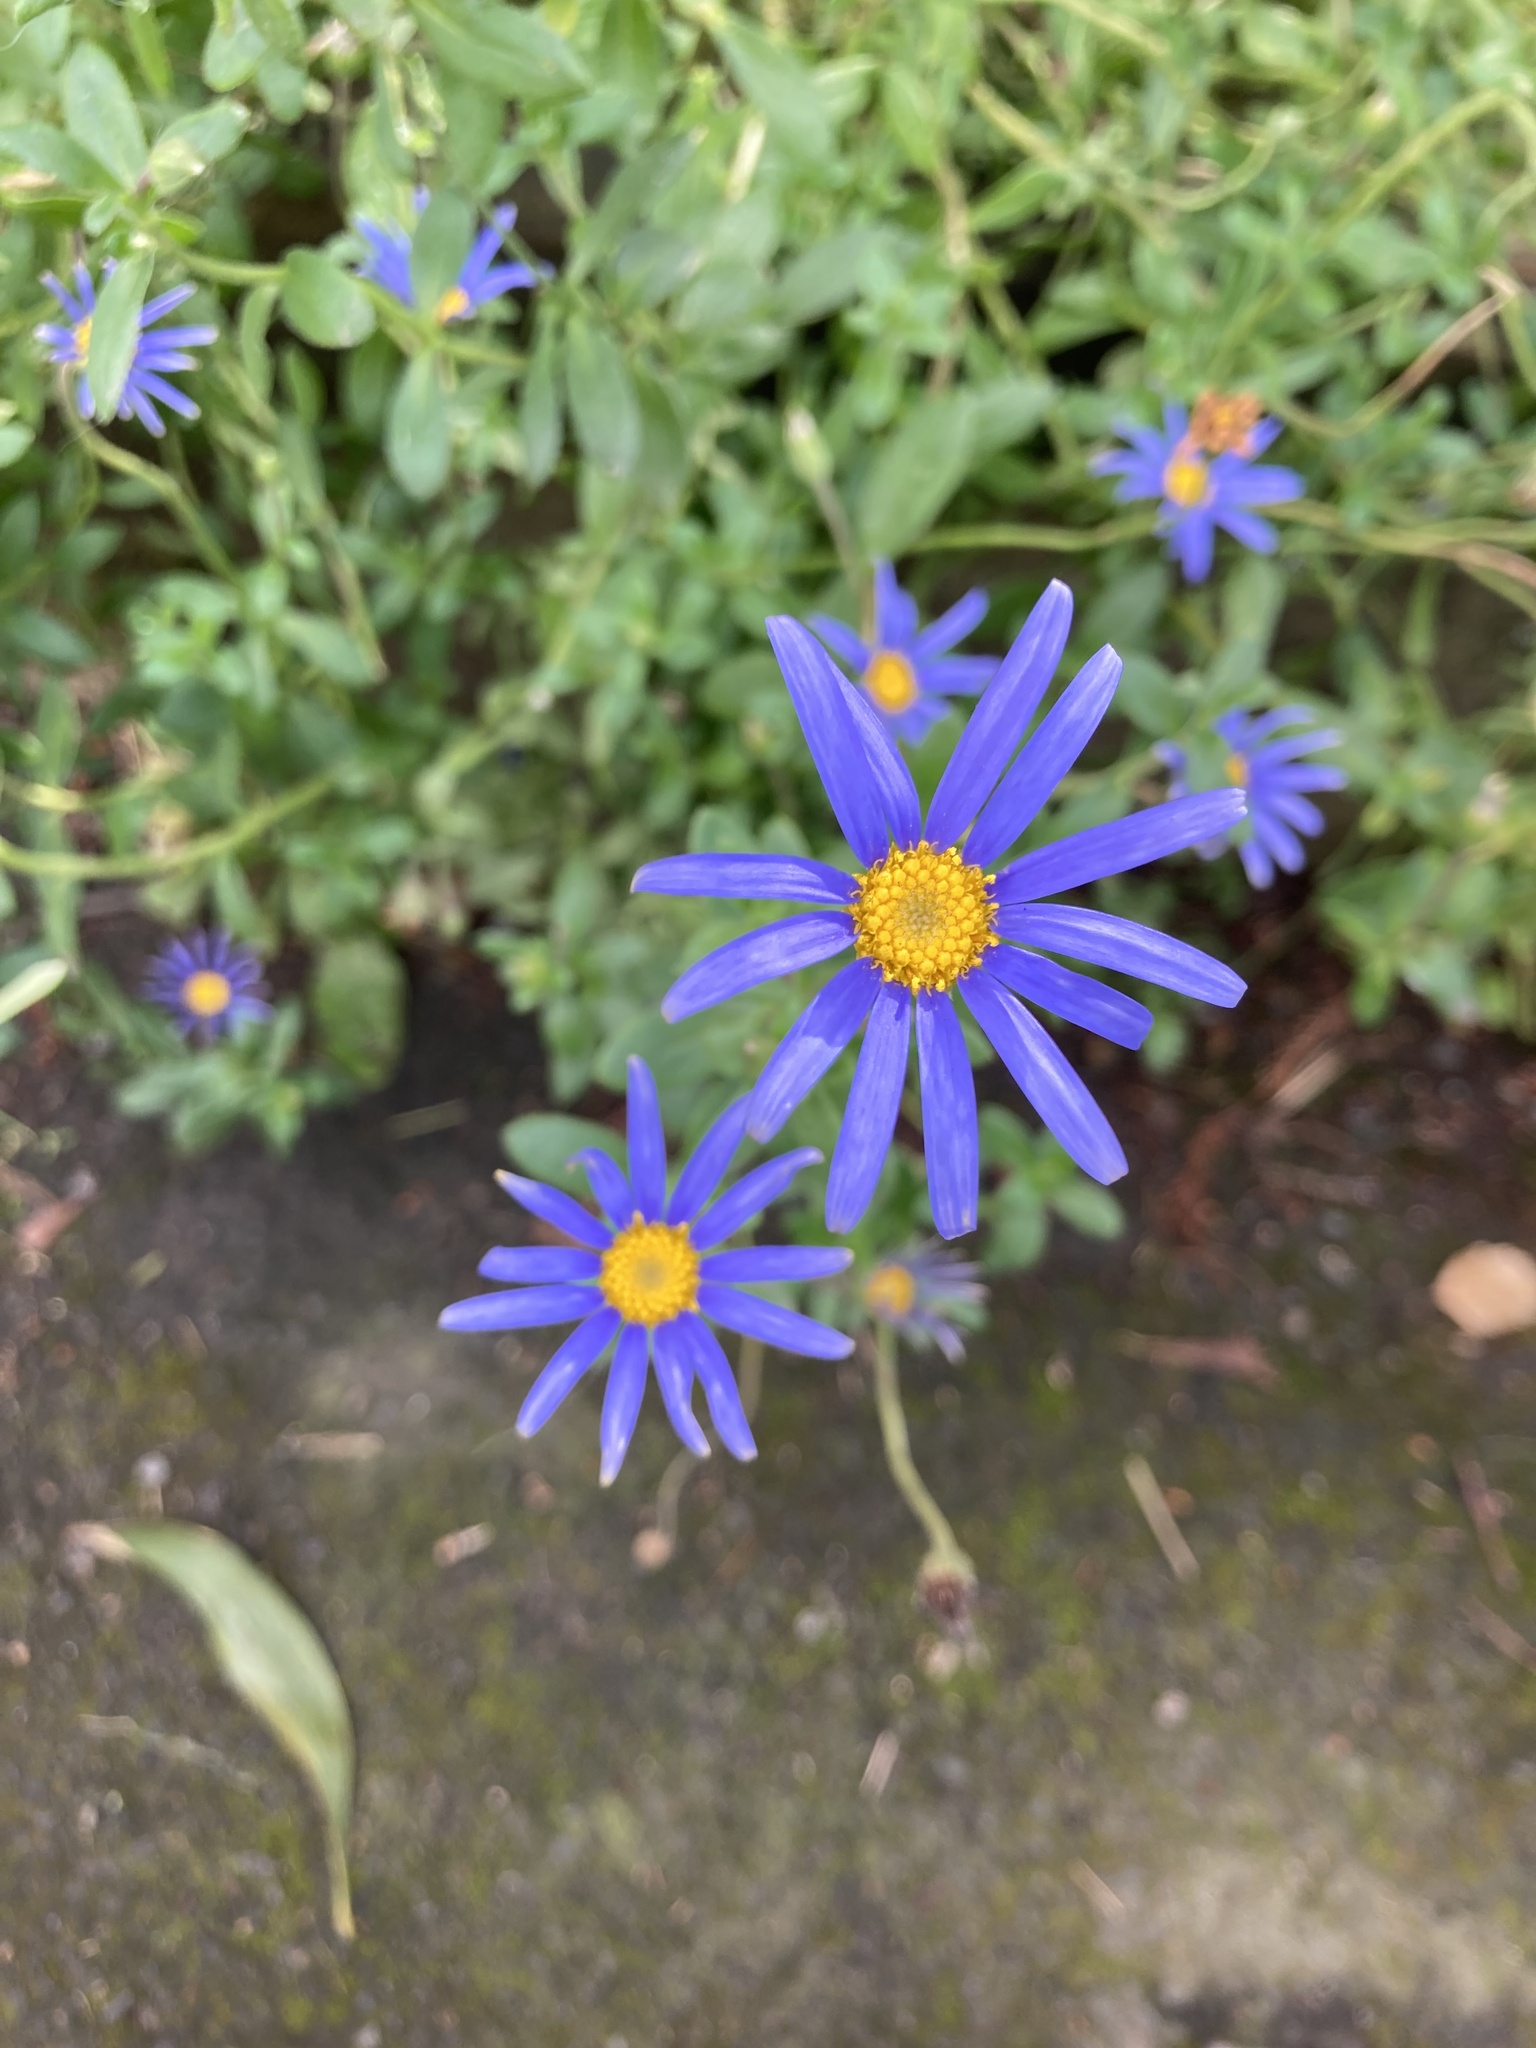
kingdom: Plantae
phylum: Tracheophyta
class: Magnoliopsida
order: Asterales
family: Asteraceae
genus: Felicia
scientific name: Felicia amelloides
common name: Blue marguerite
